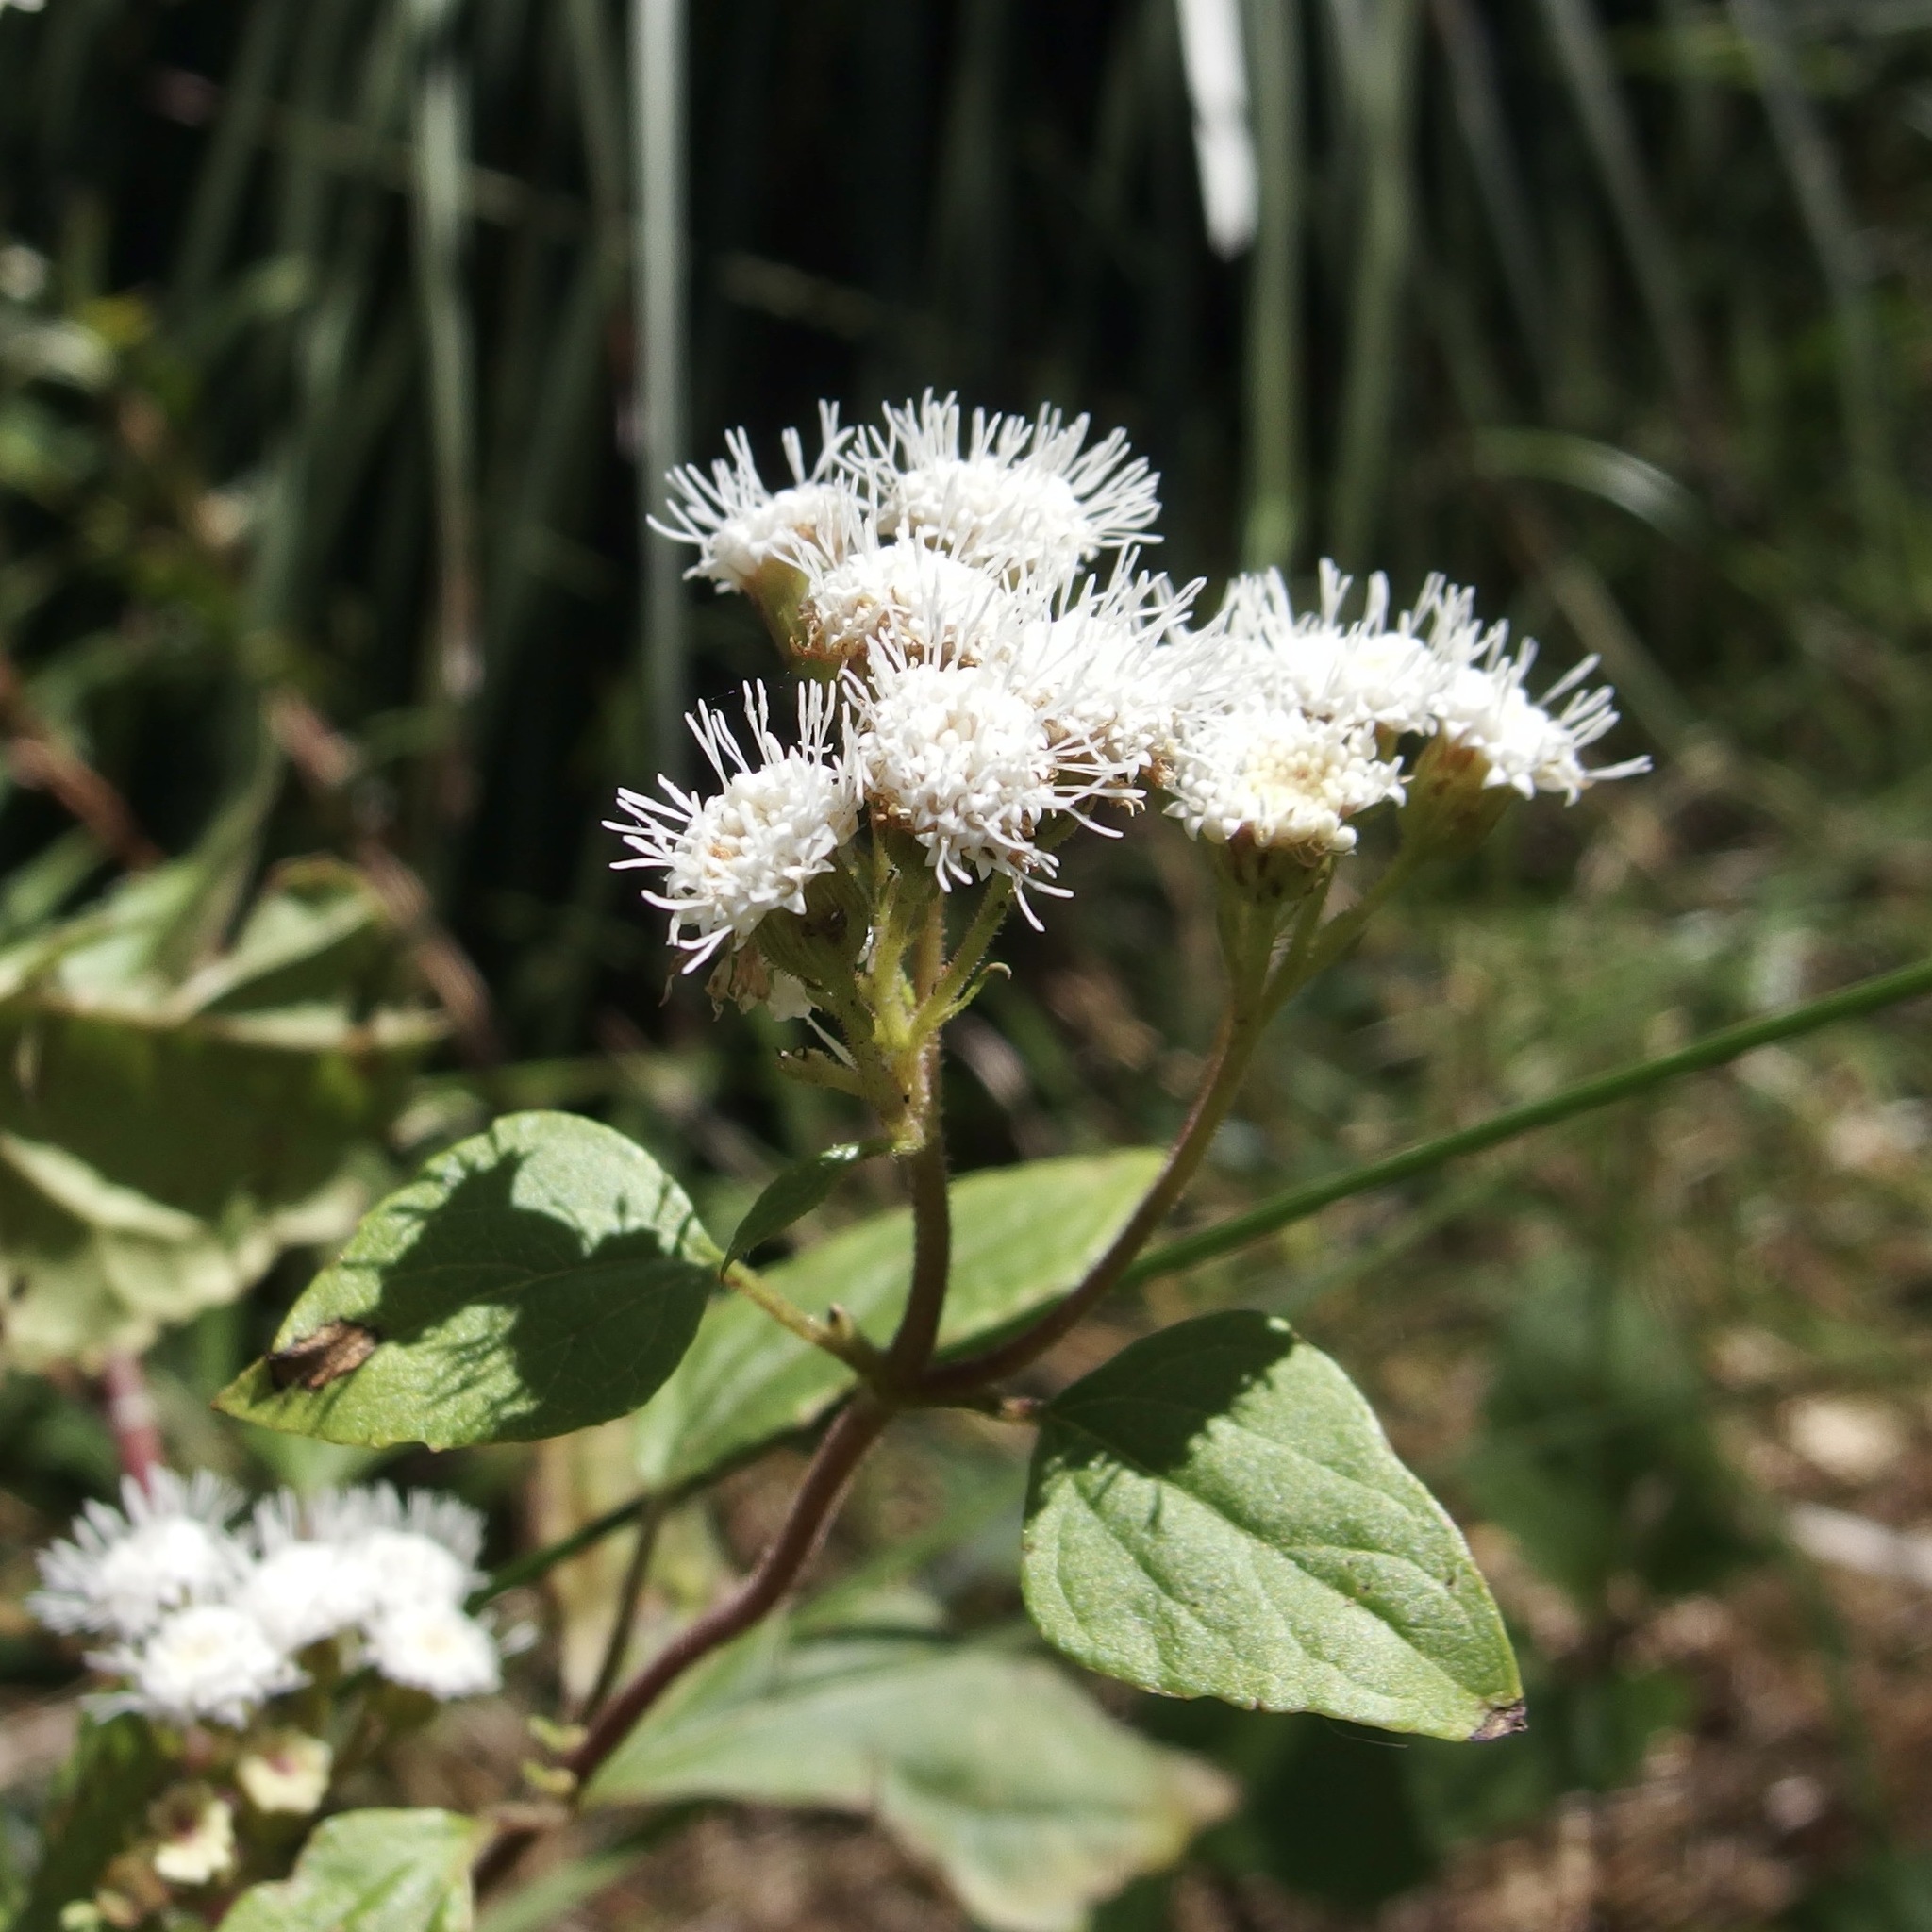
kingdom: Plantae
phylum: Tracheophyta
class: Magnoliopsida
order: Asterales
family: Asteraceae
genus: Ageratina
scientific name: Ageratina adenophora
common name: Sticky snakeroot
